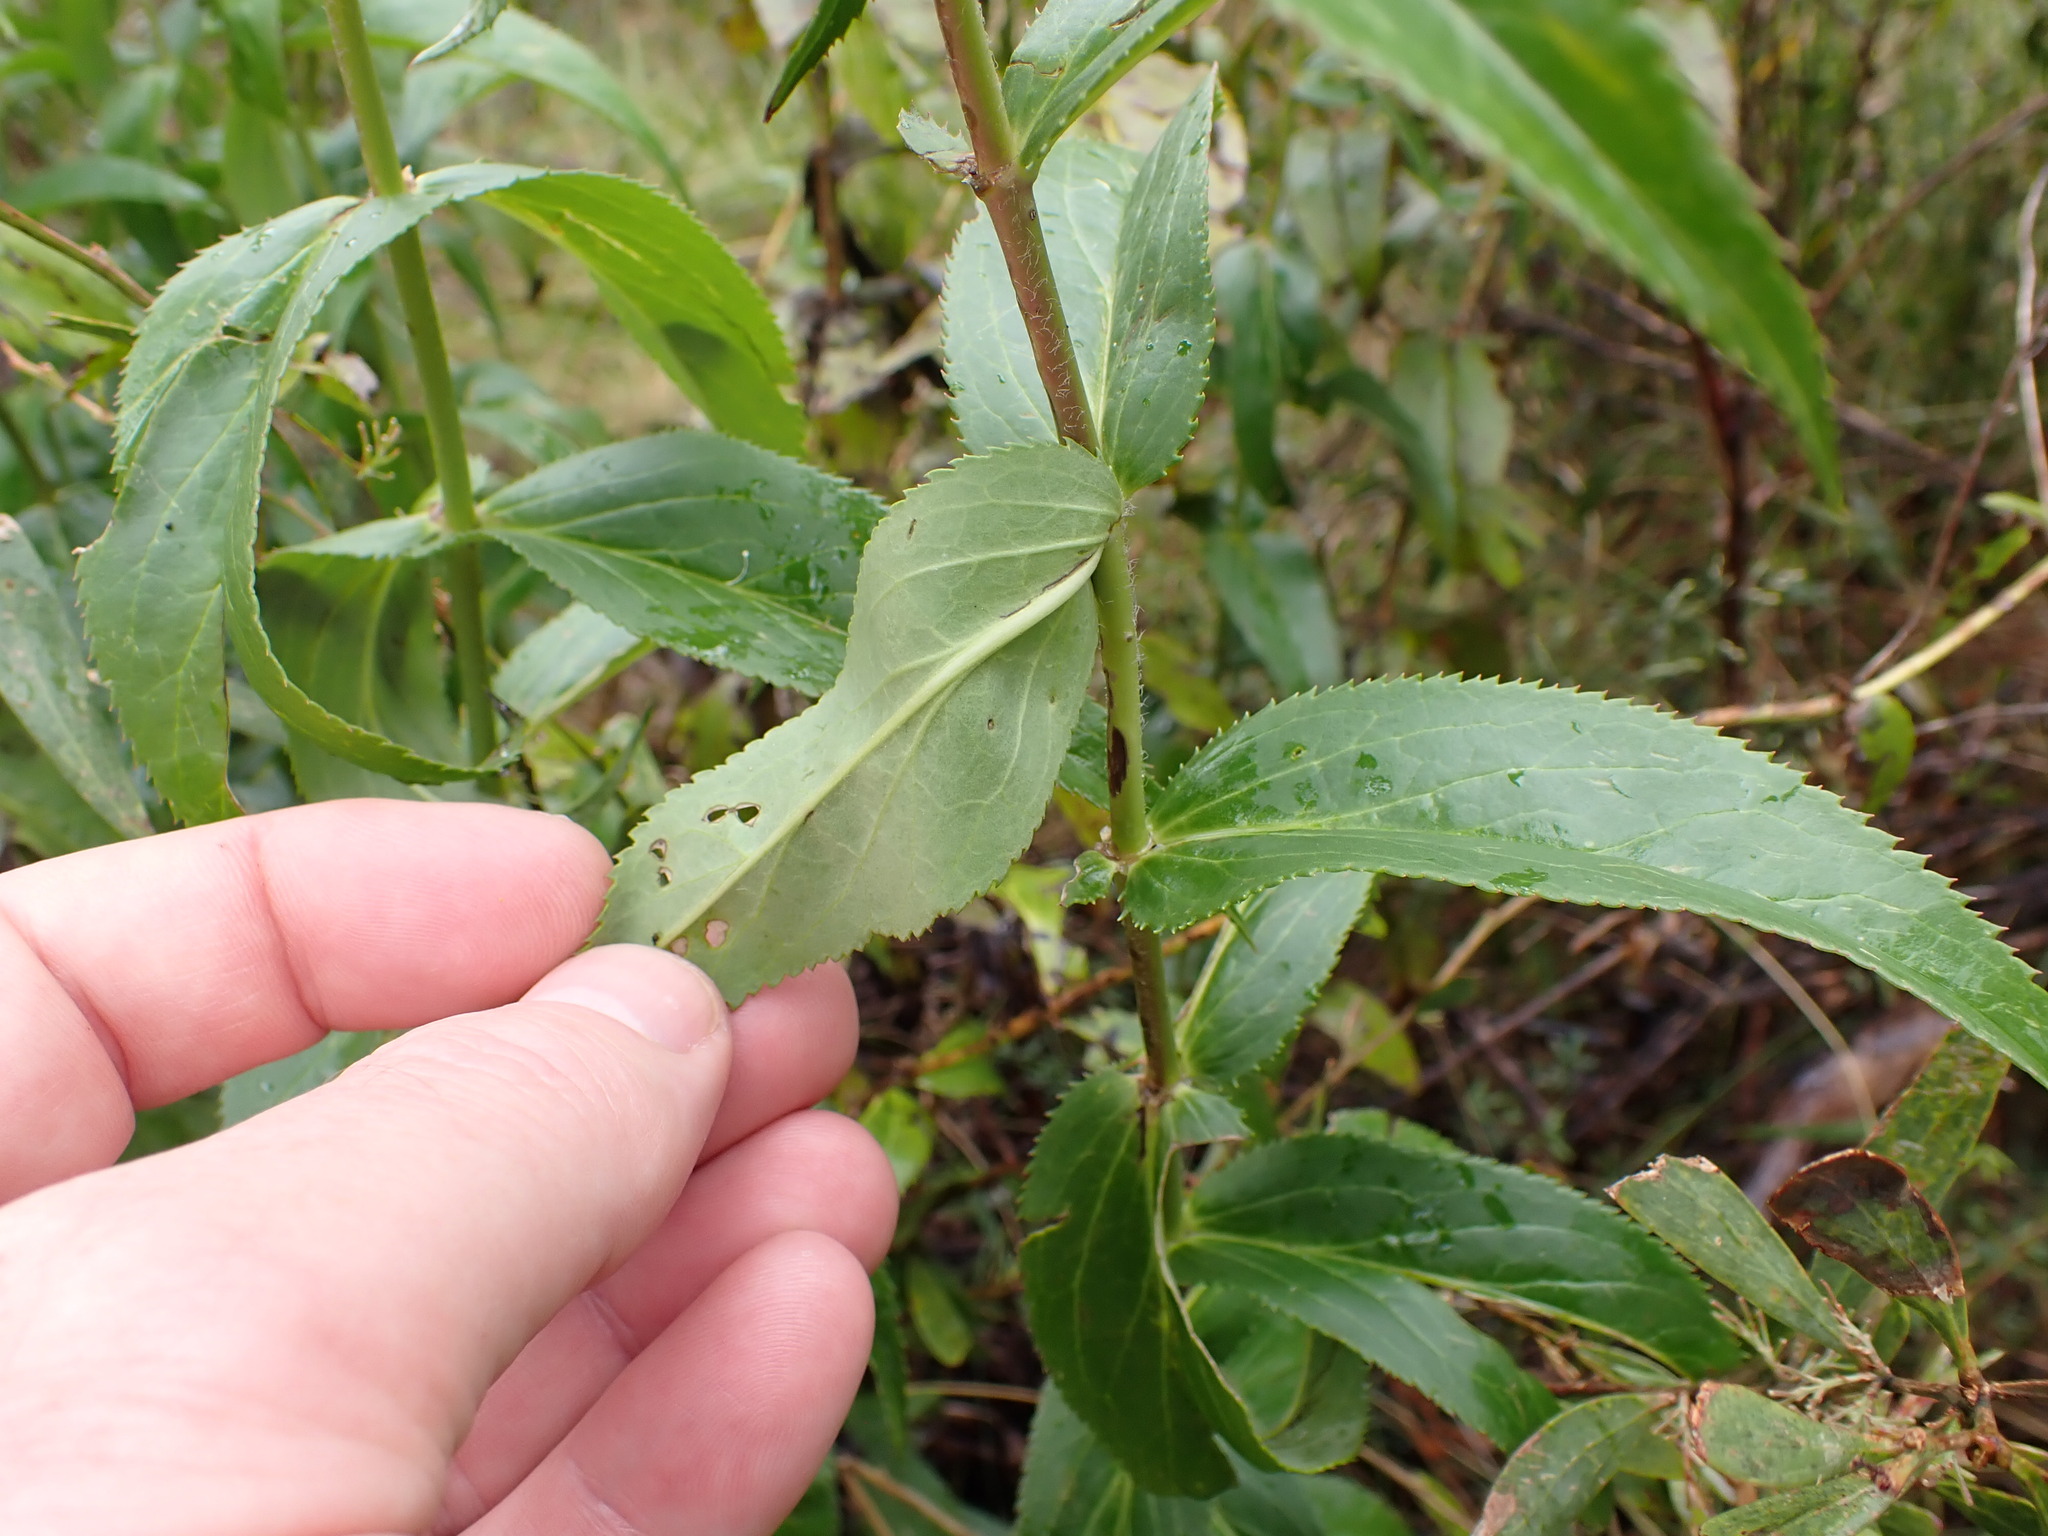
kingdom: Plantae
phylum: Tracheophyta
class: Magnoliopsida
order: Lamiales
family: Plantaginaceae
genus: Veronica
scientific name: Veronica derwentiana
